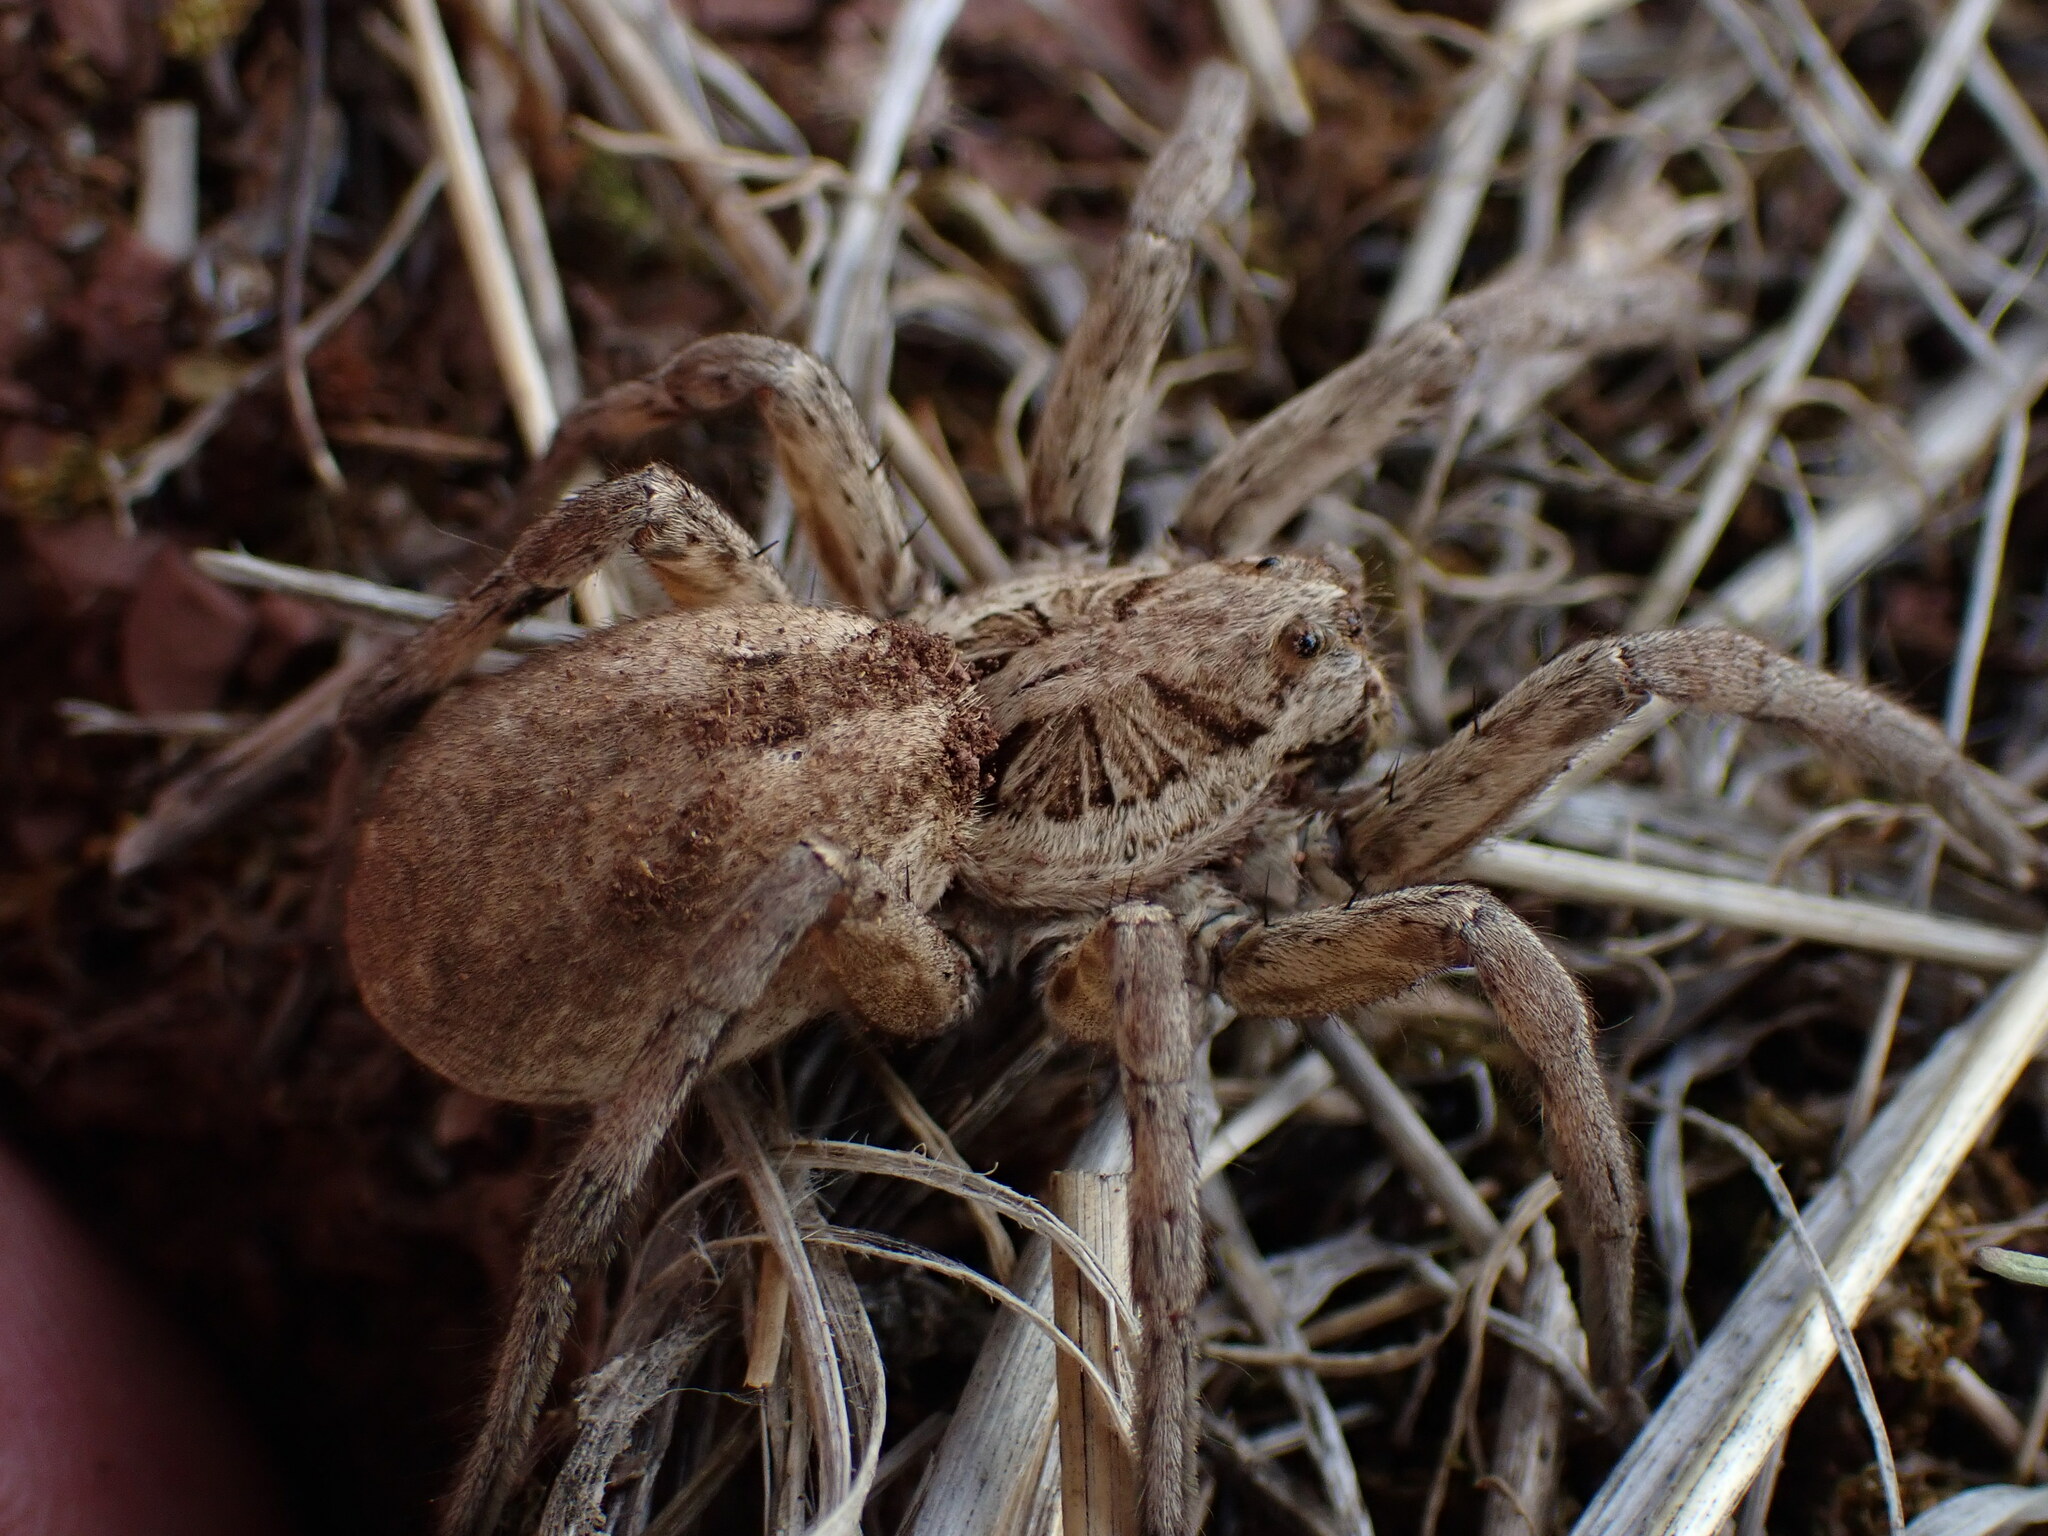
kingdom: Animalia
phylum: Arthropoda
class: Arachnida
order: Araneae
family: Lycosidae
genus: Hogna
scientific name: Hogna radiata
